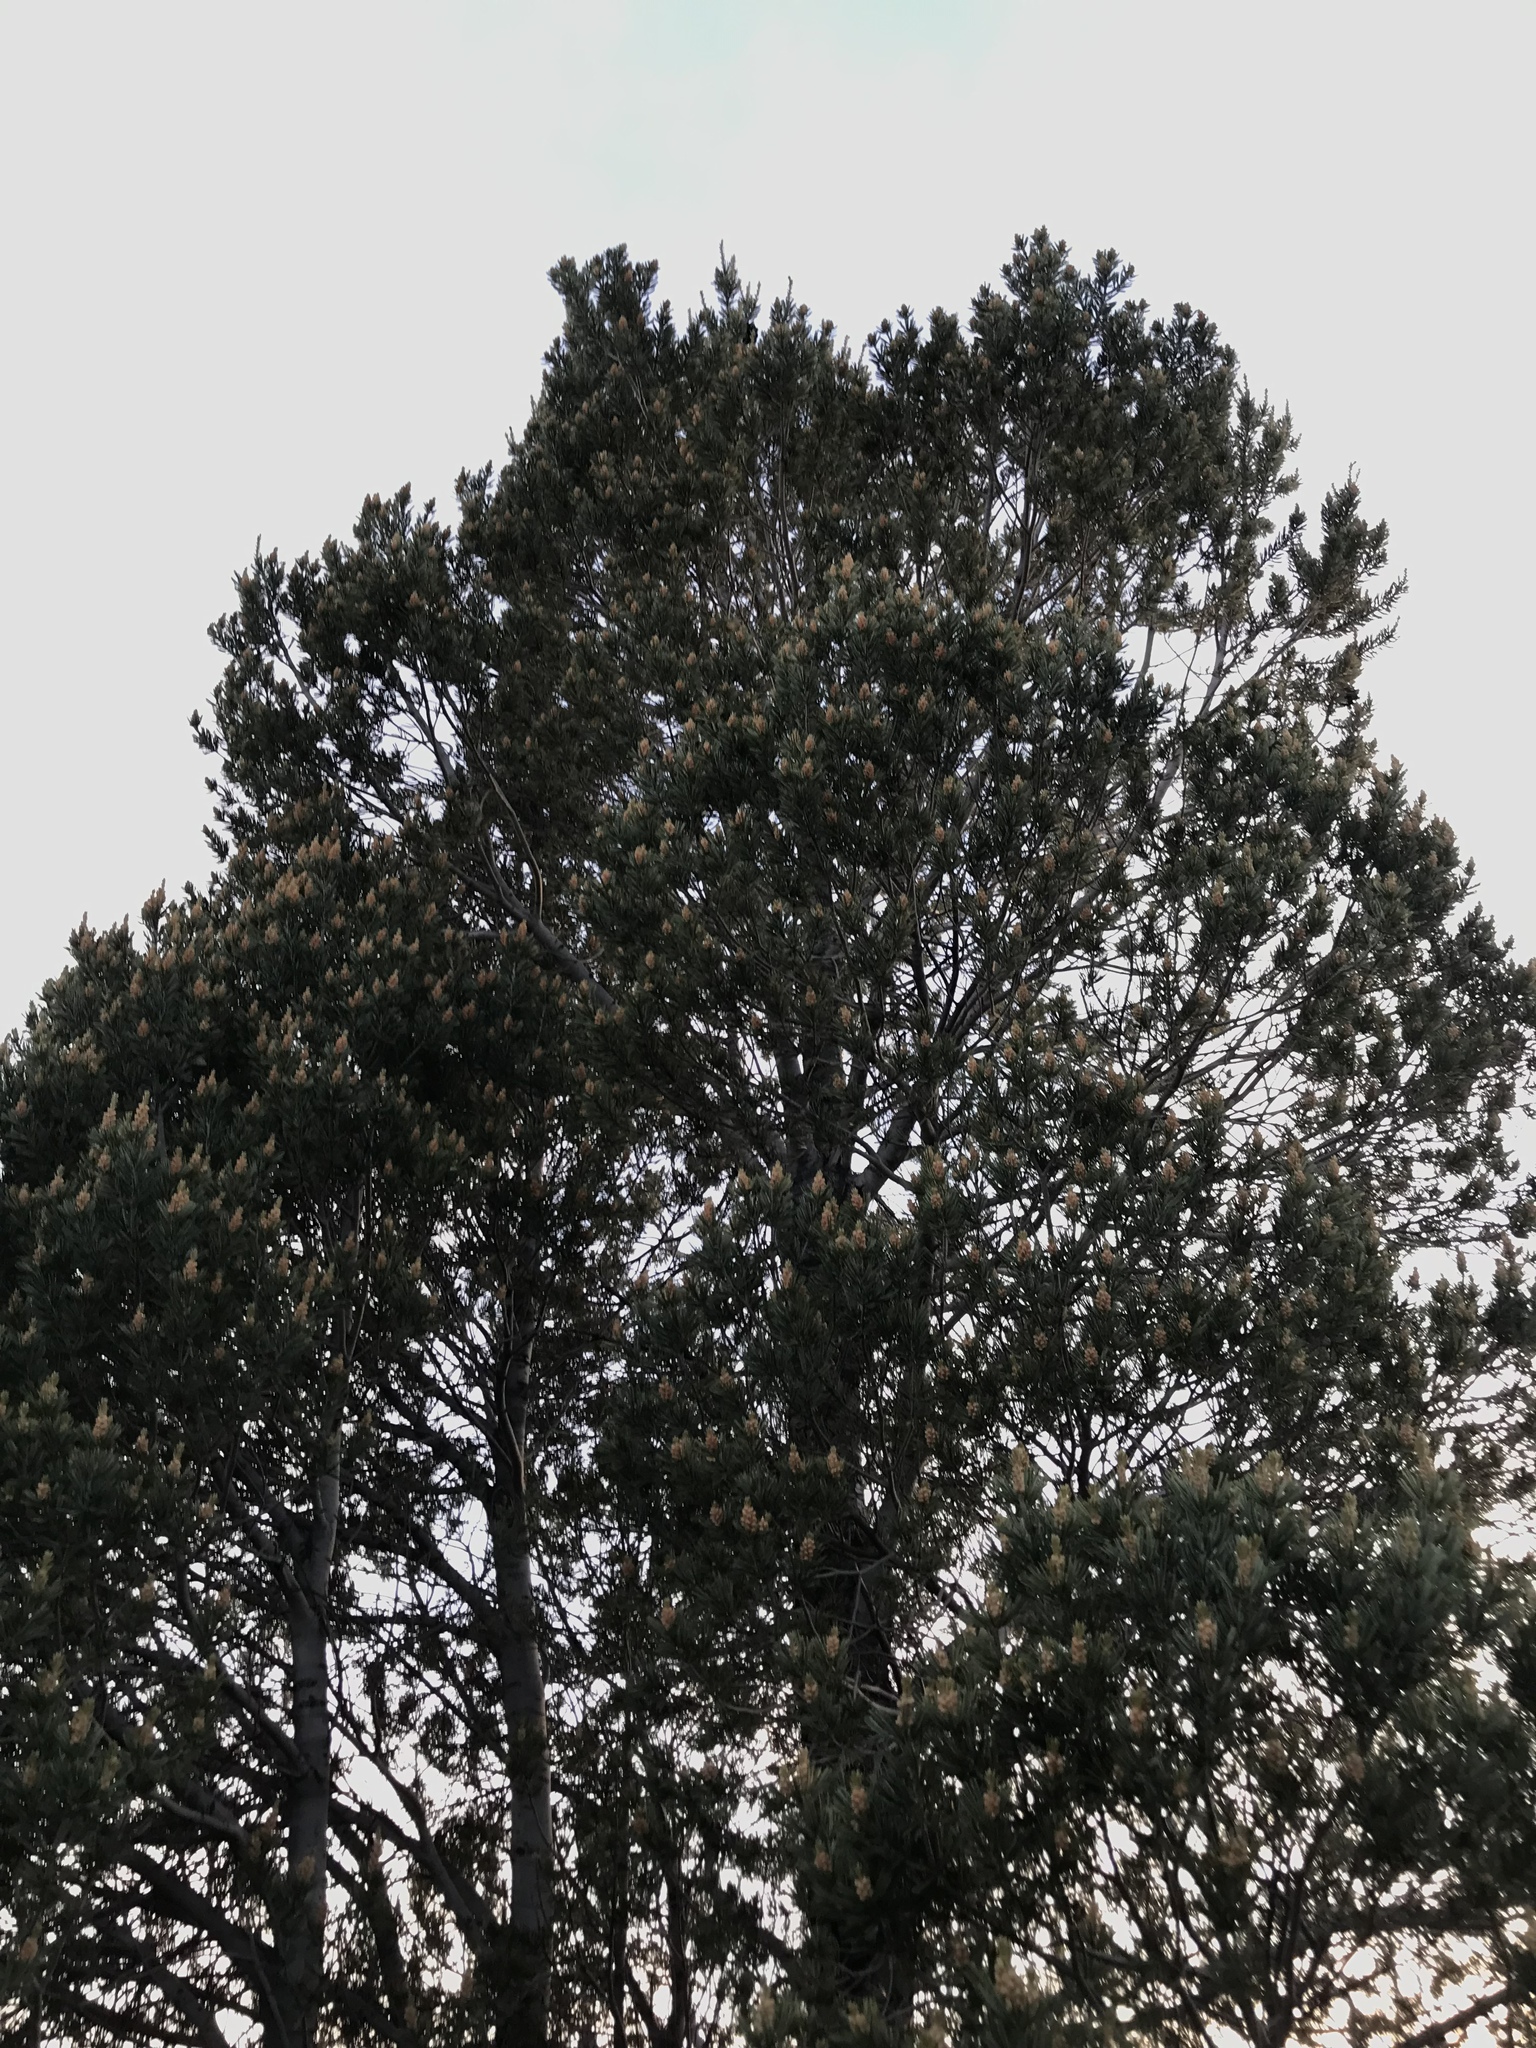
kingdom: Plantae
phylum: Tracheophyta
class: Pinopsida
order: Pinales
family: Pinaceae
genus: Pinus
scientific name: Pinus quadrifolia
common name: Parry pinyon
